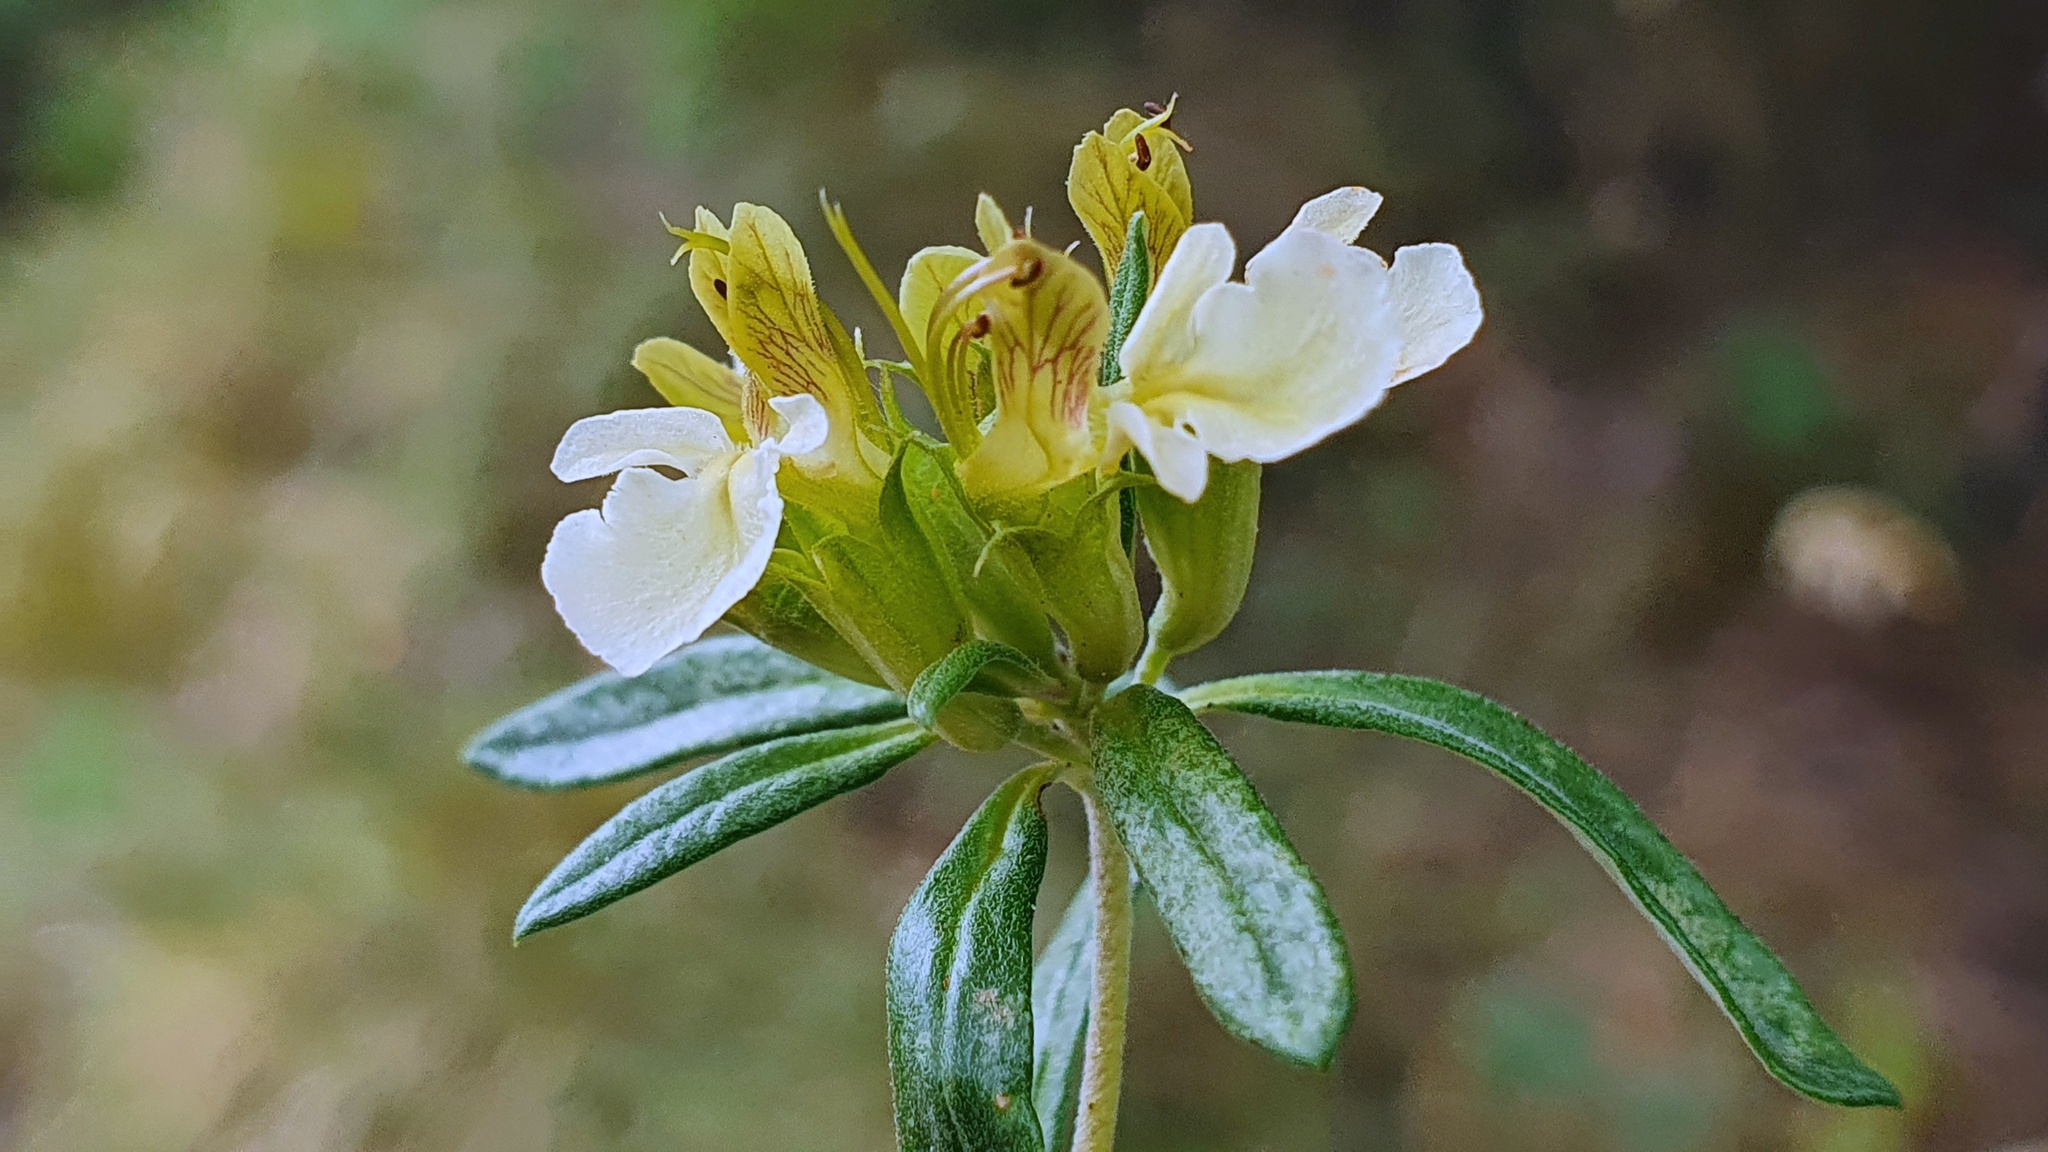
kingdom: Plantae
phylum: Tracheophyta
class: Magnoliopsida
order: Lamiales
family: Lamiaceae
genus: Teucrium
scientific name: Teucrium montanum
